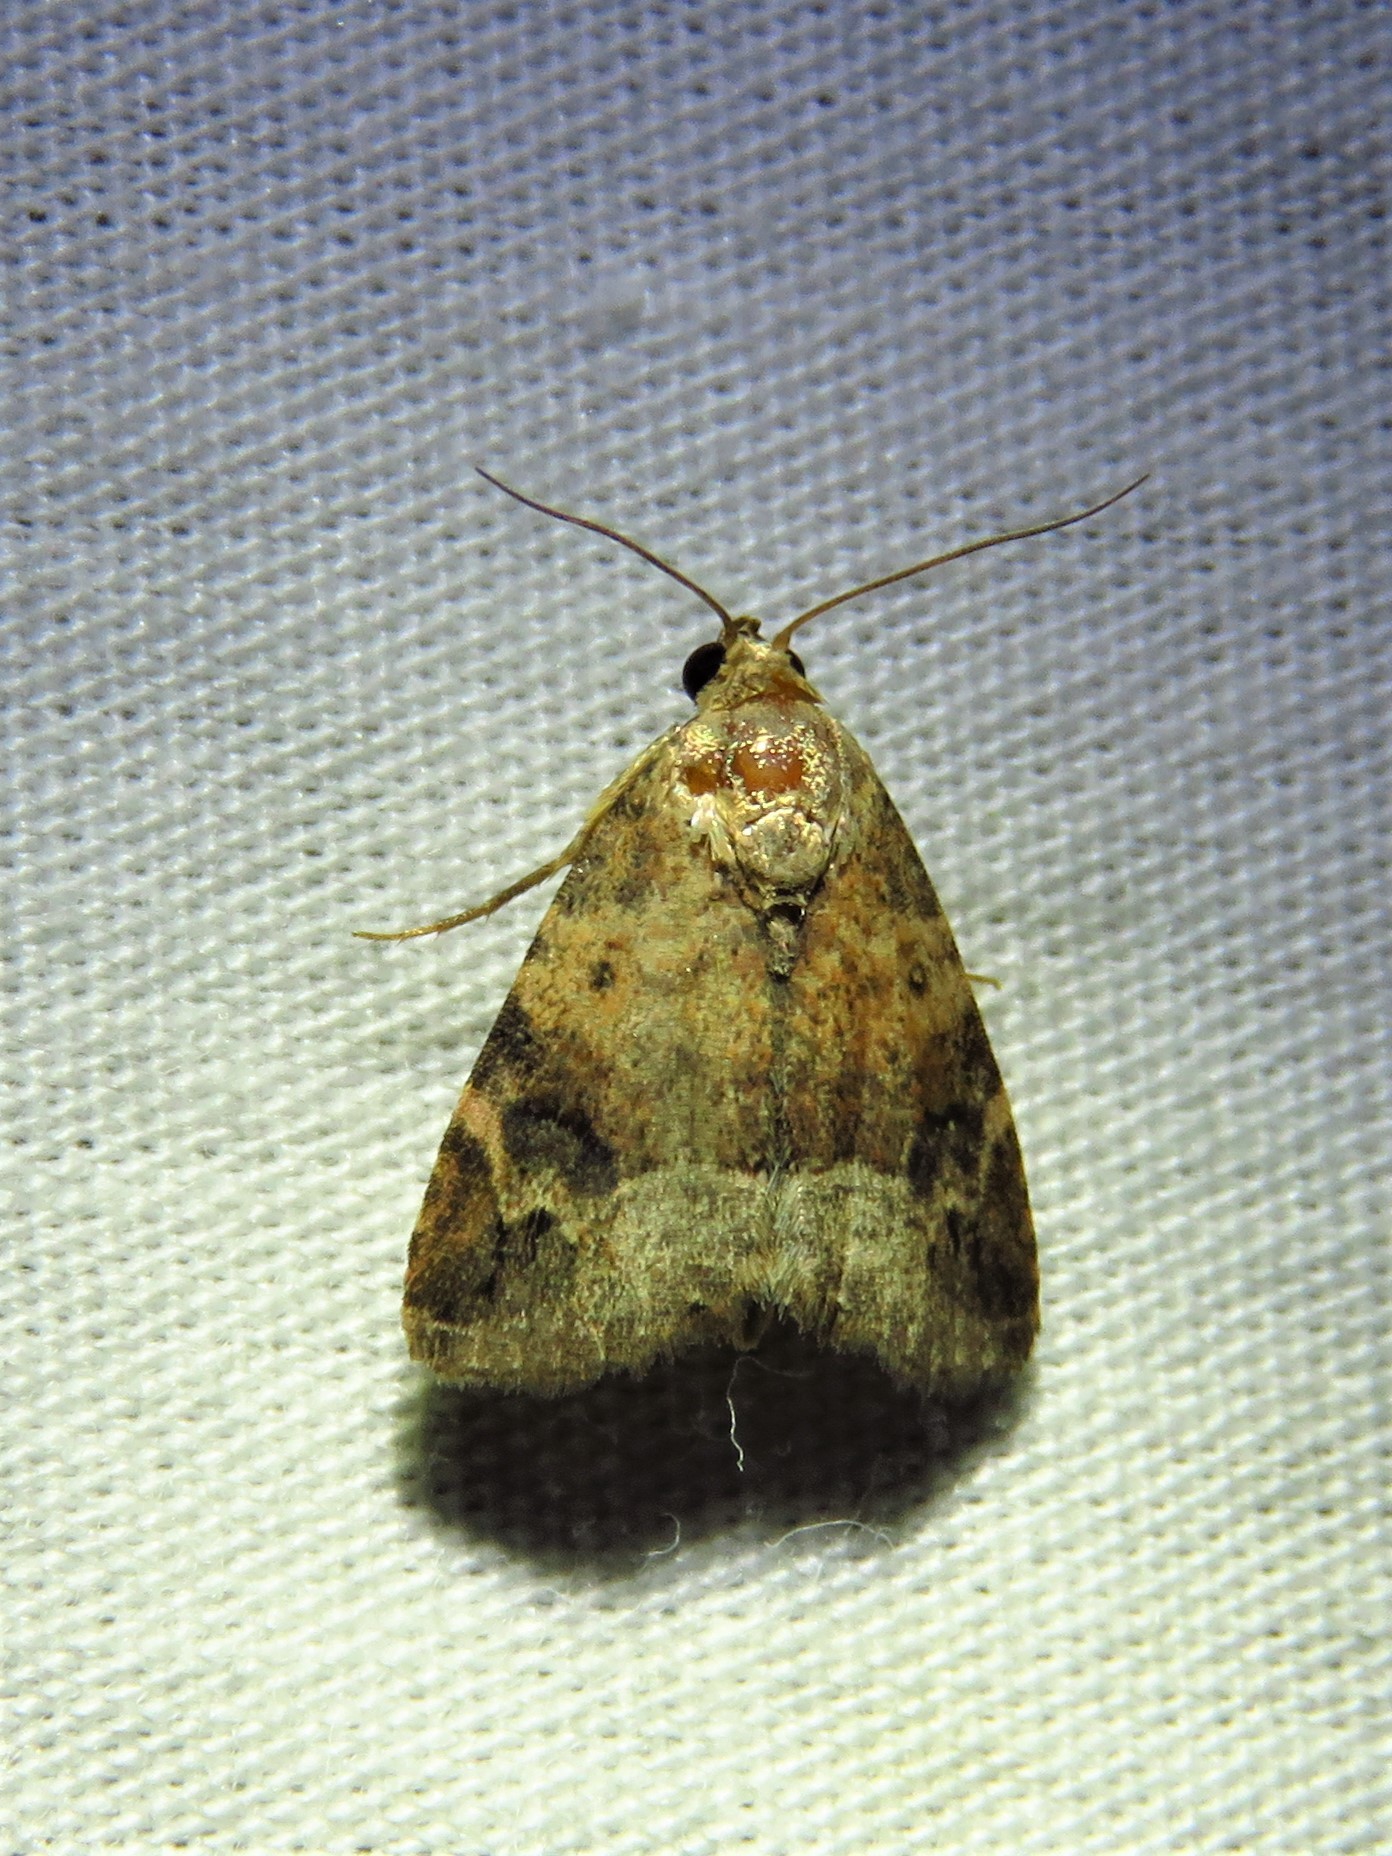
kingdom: Animalia
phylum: Arthropoda
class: Insecta
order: Lepidoptera
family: Noctuidae
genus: Ozarba
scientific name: Ozarba aeria
